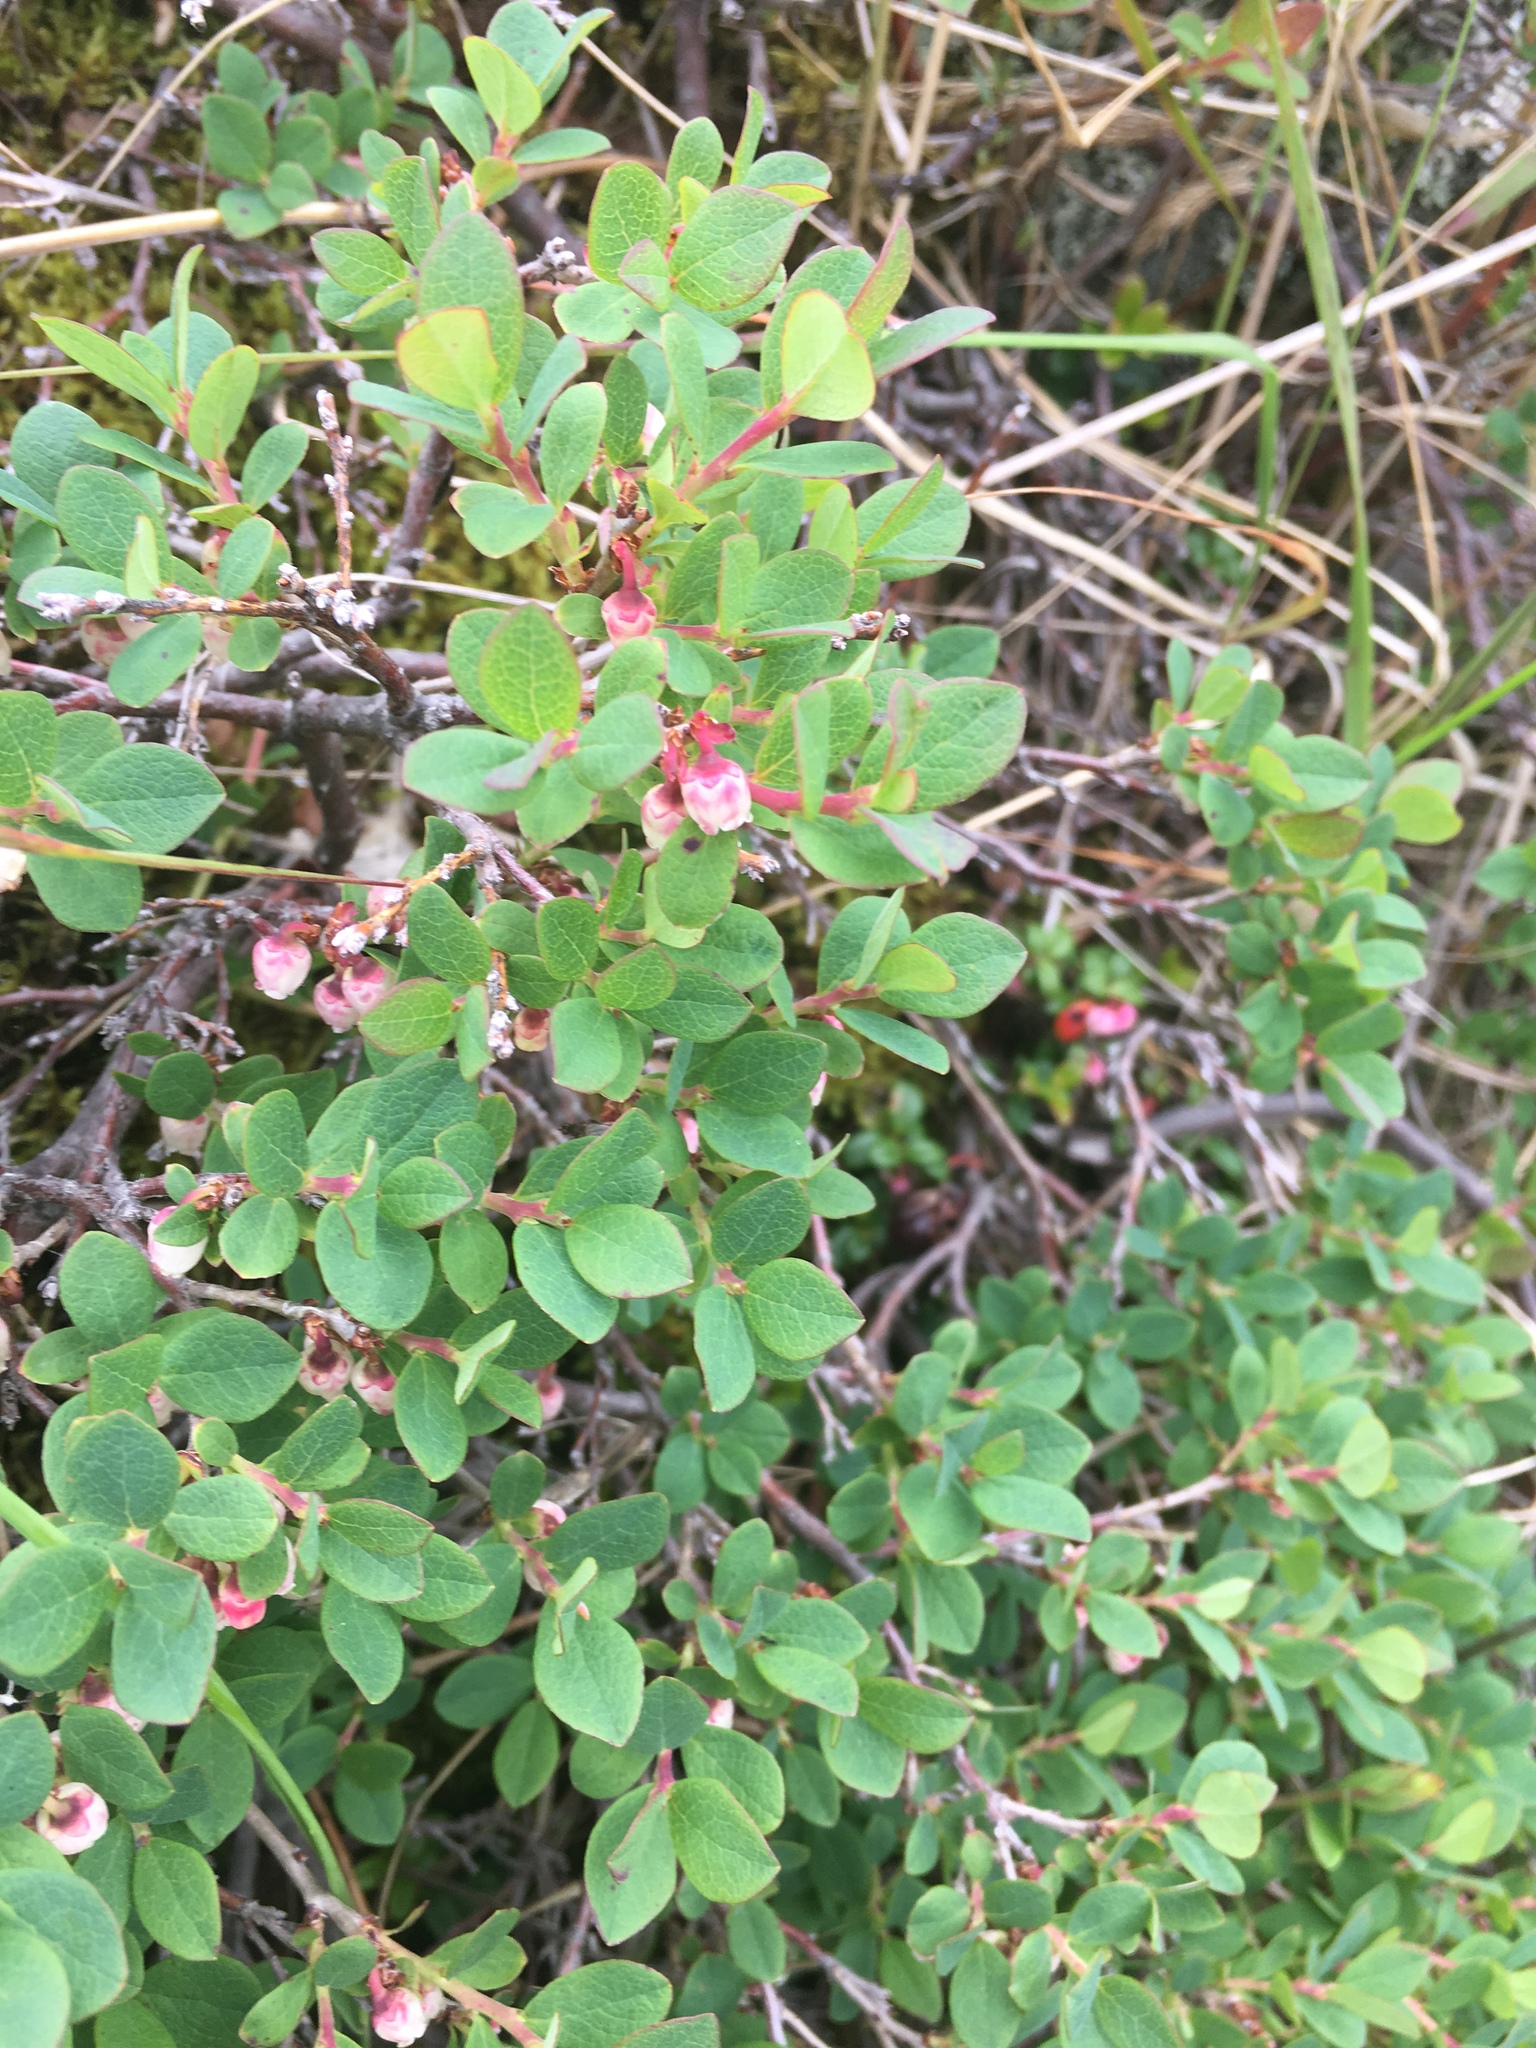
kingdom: Plantae
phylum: Tracheophyta
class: Magnoliopsida
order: Ericales
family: Ericaceae
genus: Vaccinium
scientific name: Vaccinium uliginosum
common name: Bog bilberry
